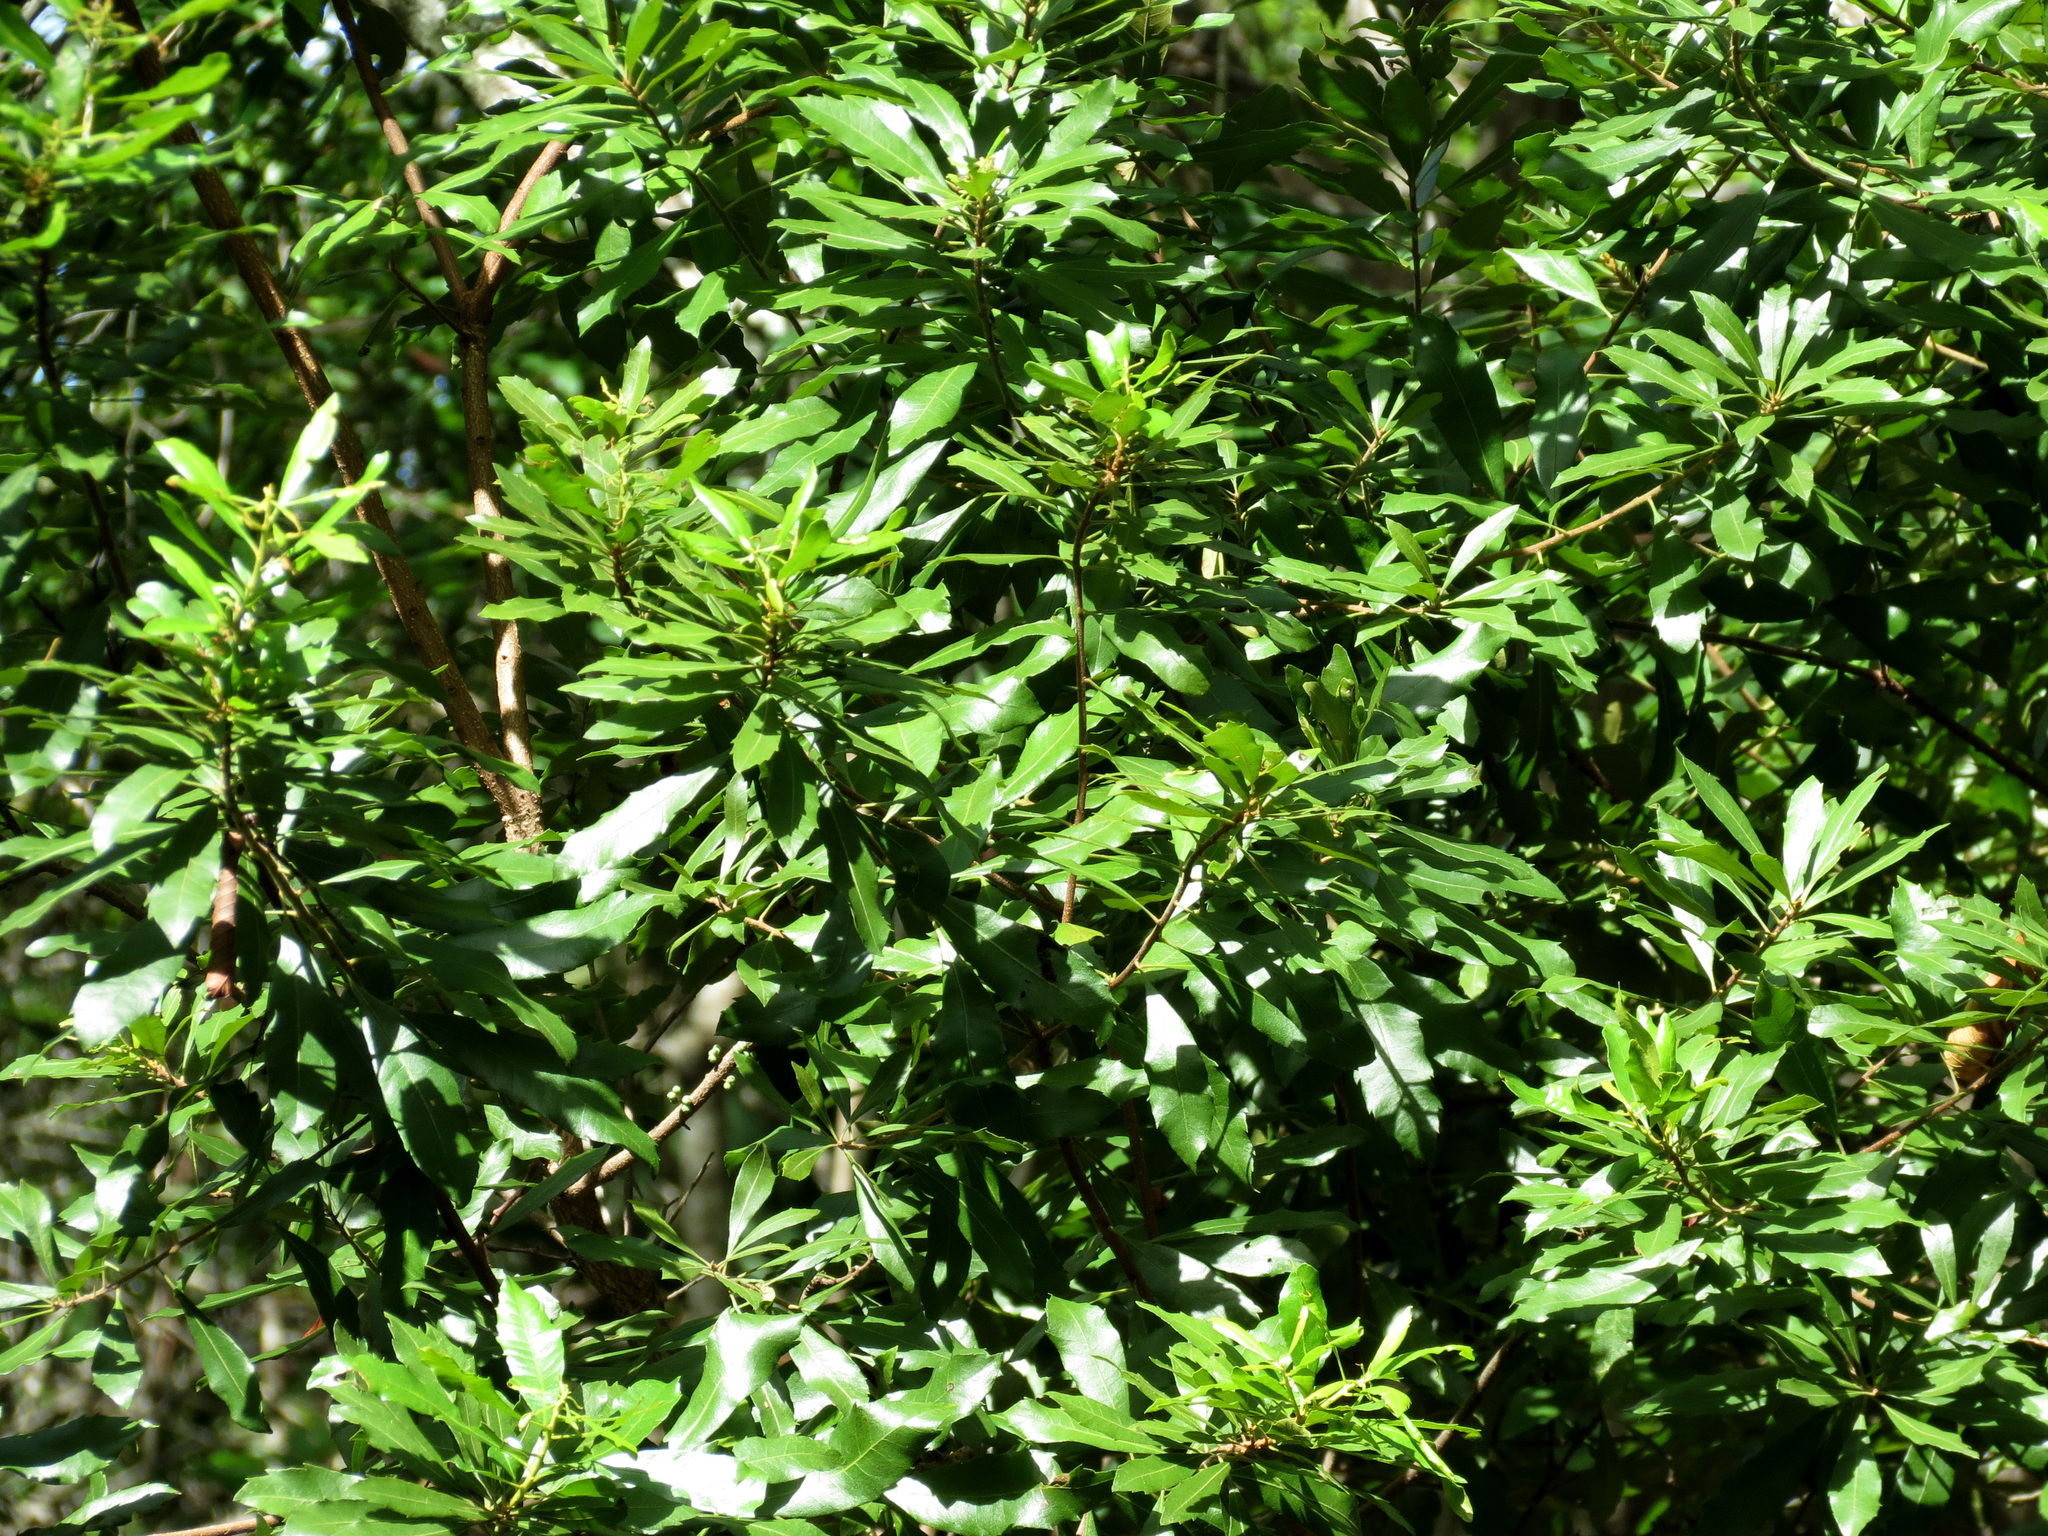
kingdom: Plantae
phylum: Tracheophyta
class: Magnoliopsida
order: Fagales
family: Myricaceae
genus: Morella
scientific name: Morella cerifera
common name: Wax myrtle
